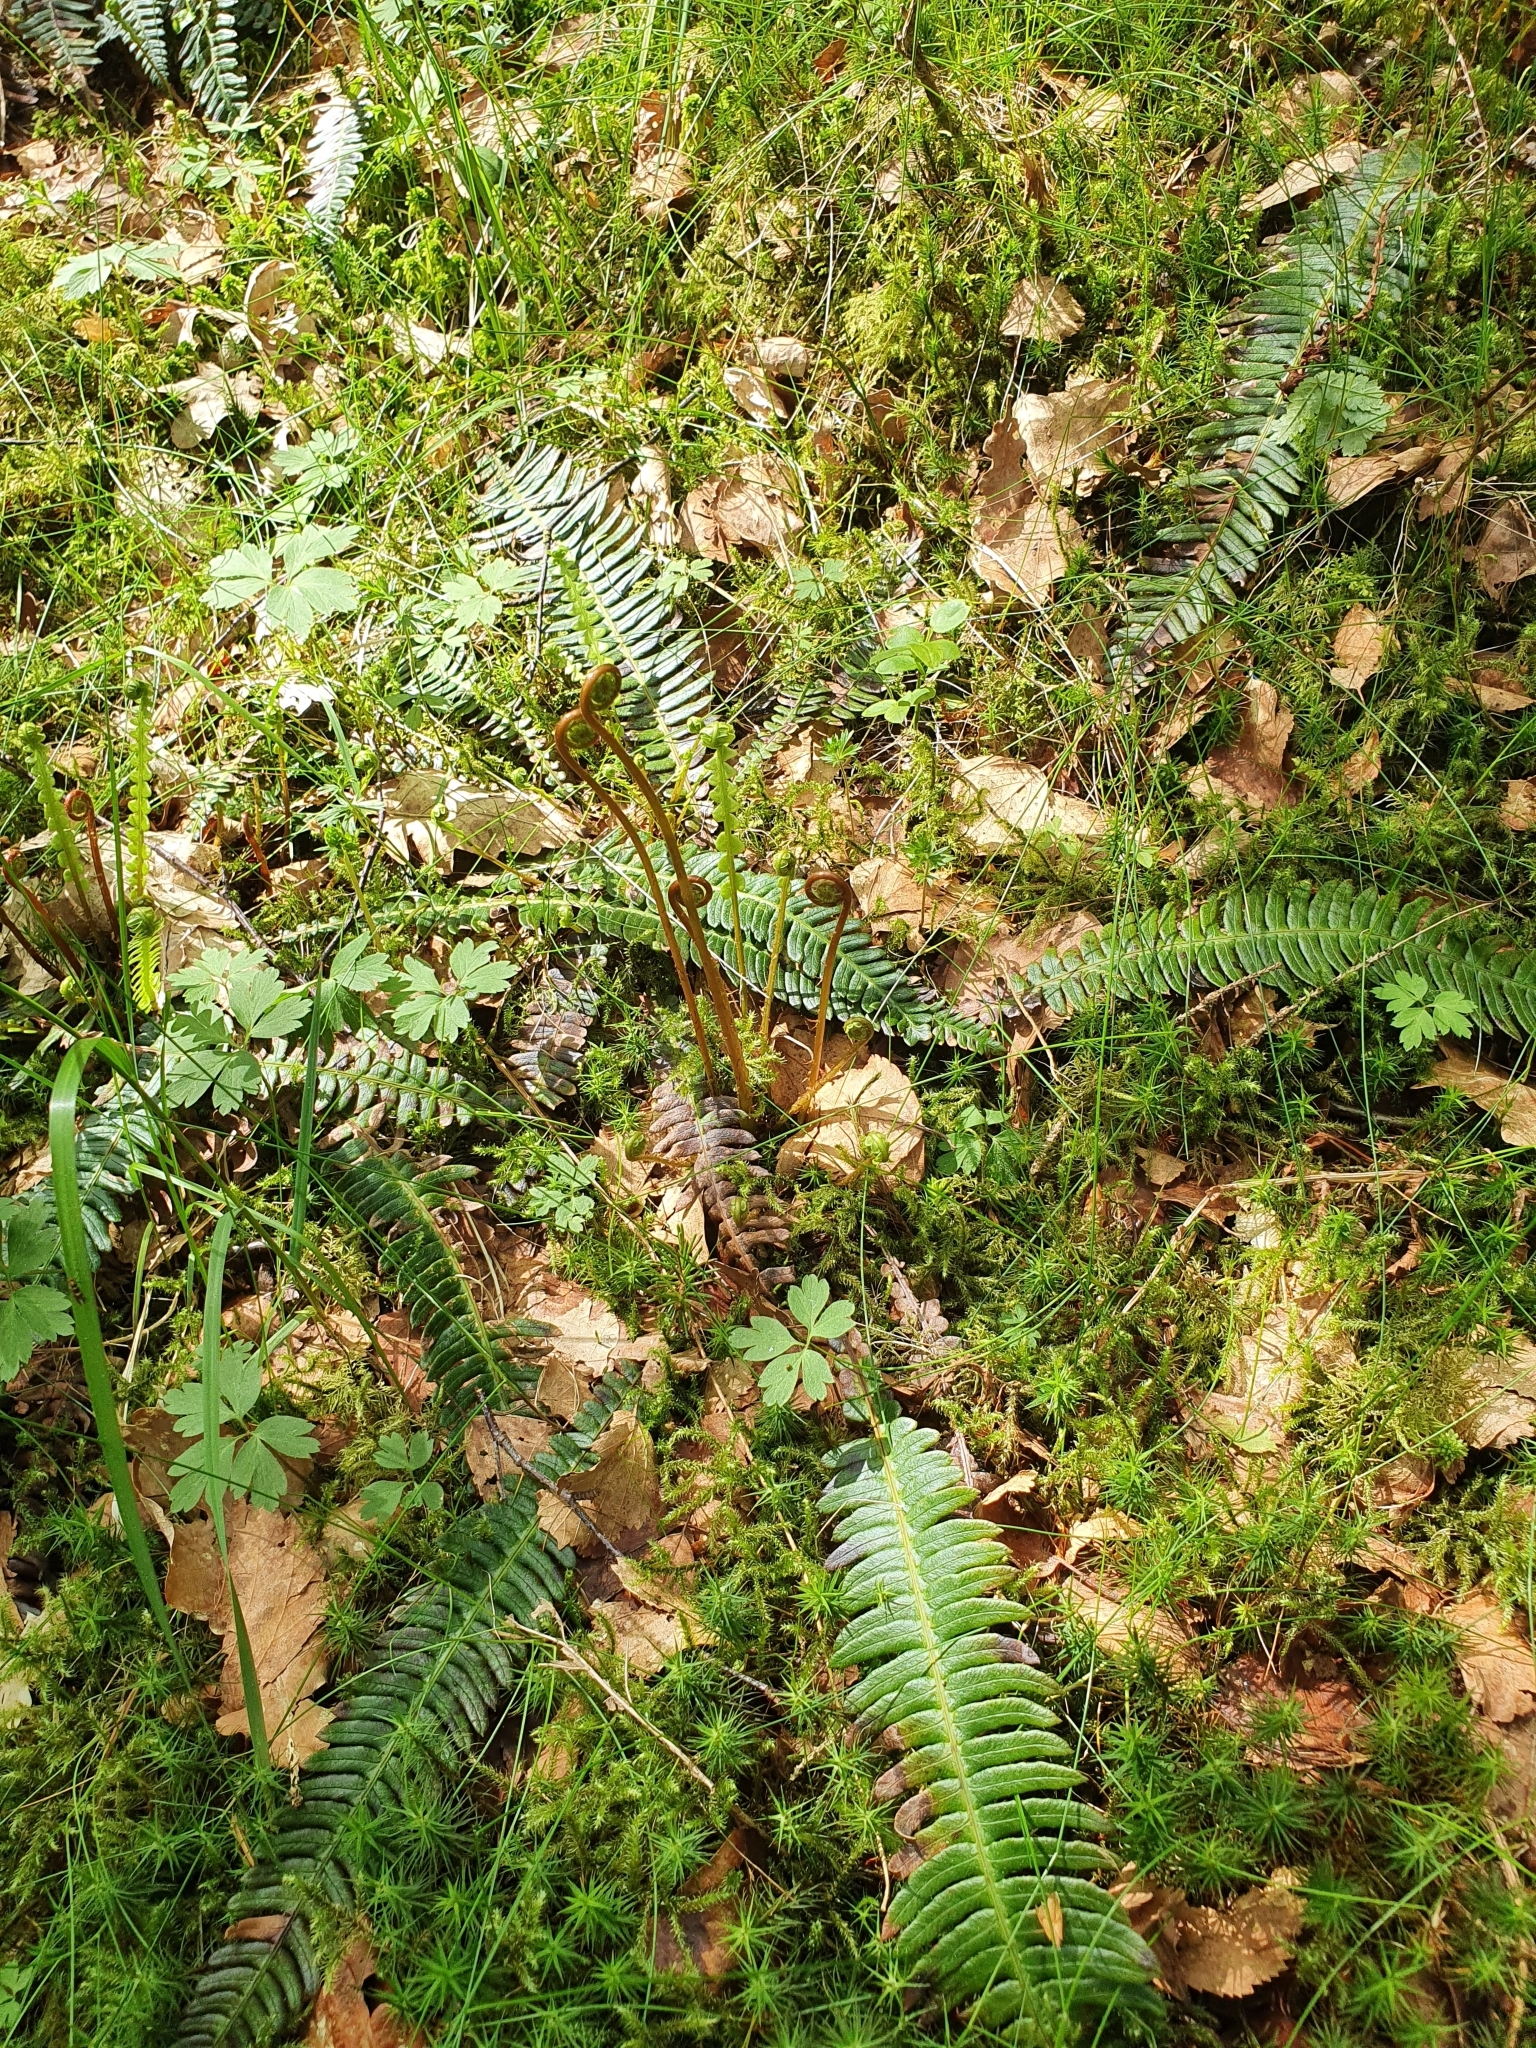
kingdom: Plantae
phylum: Tracheophyta
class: Polypodiopsida
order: Polypodiales
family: Blechnaceae
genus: Struthiopteris
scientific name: Struthiopteris spicant
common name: Deer fern
